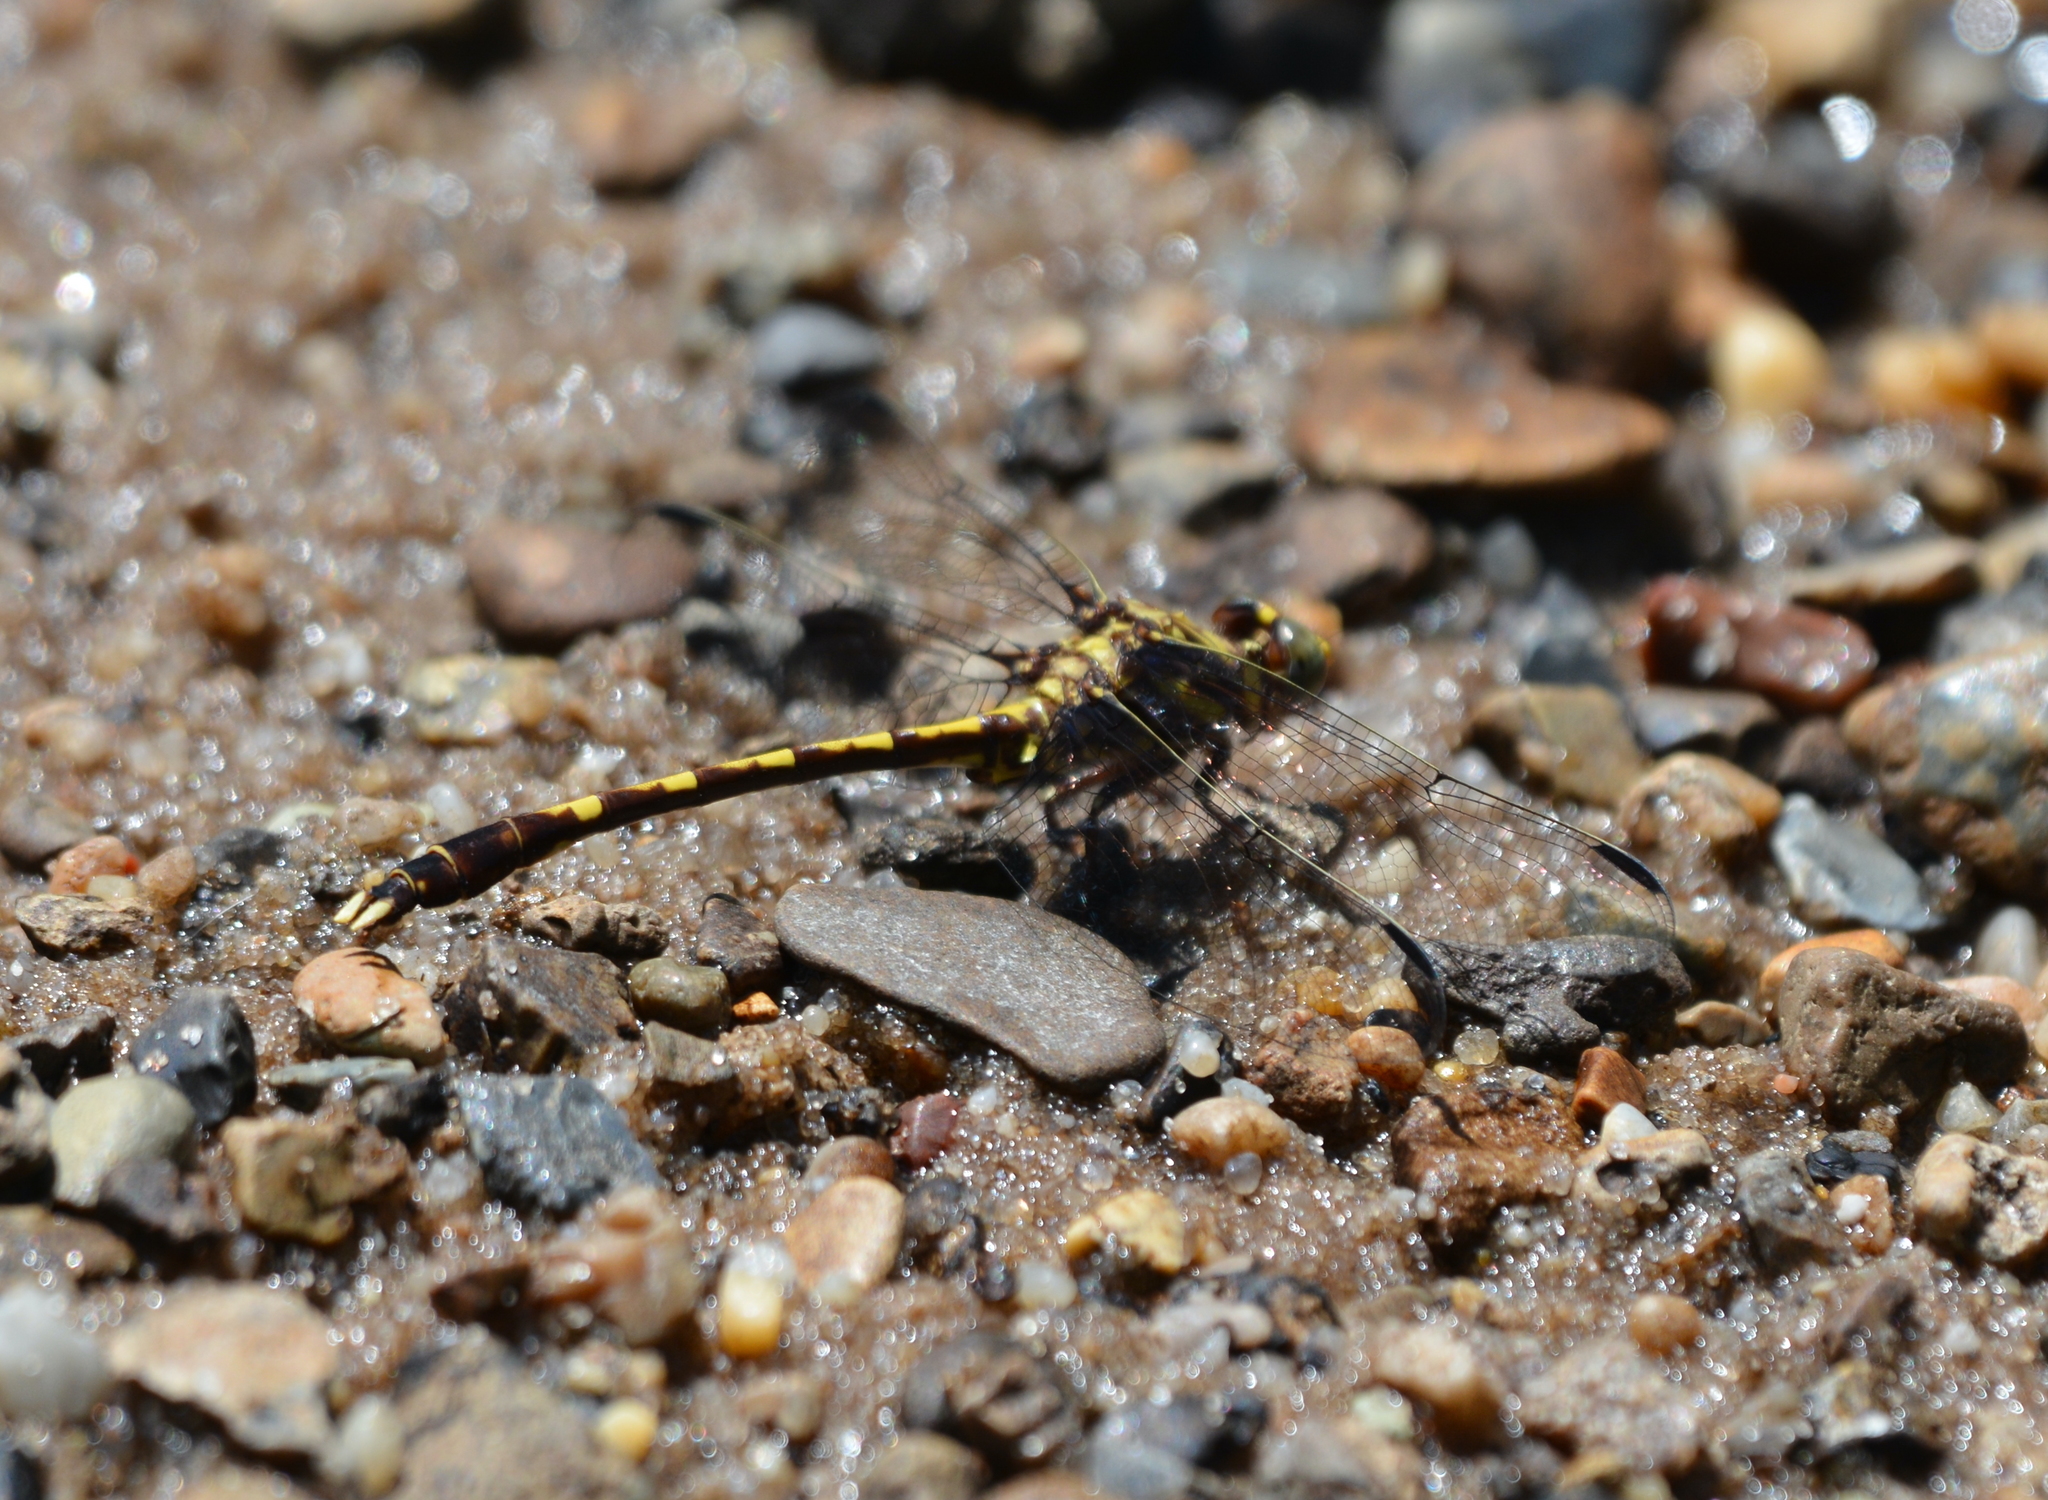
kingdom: Animalia
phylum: Arthropoda
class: Insecta
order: Odonata
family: Gomphidae
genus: Progomphus
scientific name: Progomphus obscurus
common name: Common sanddragon
